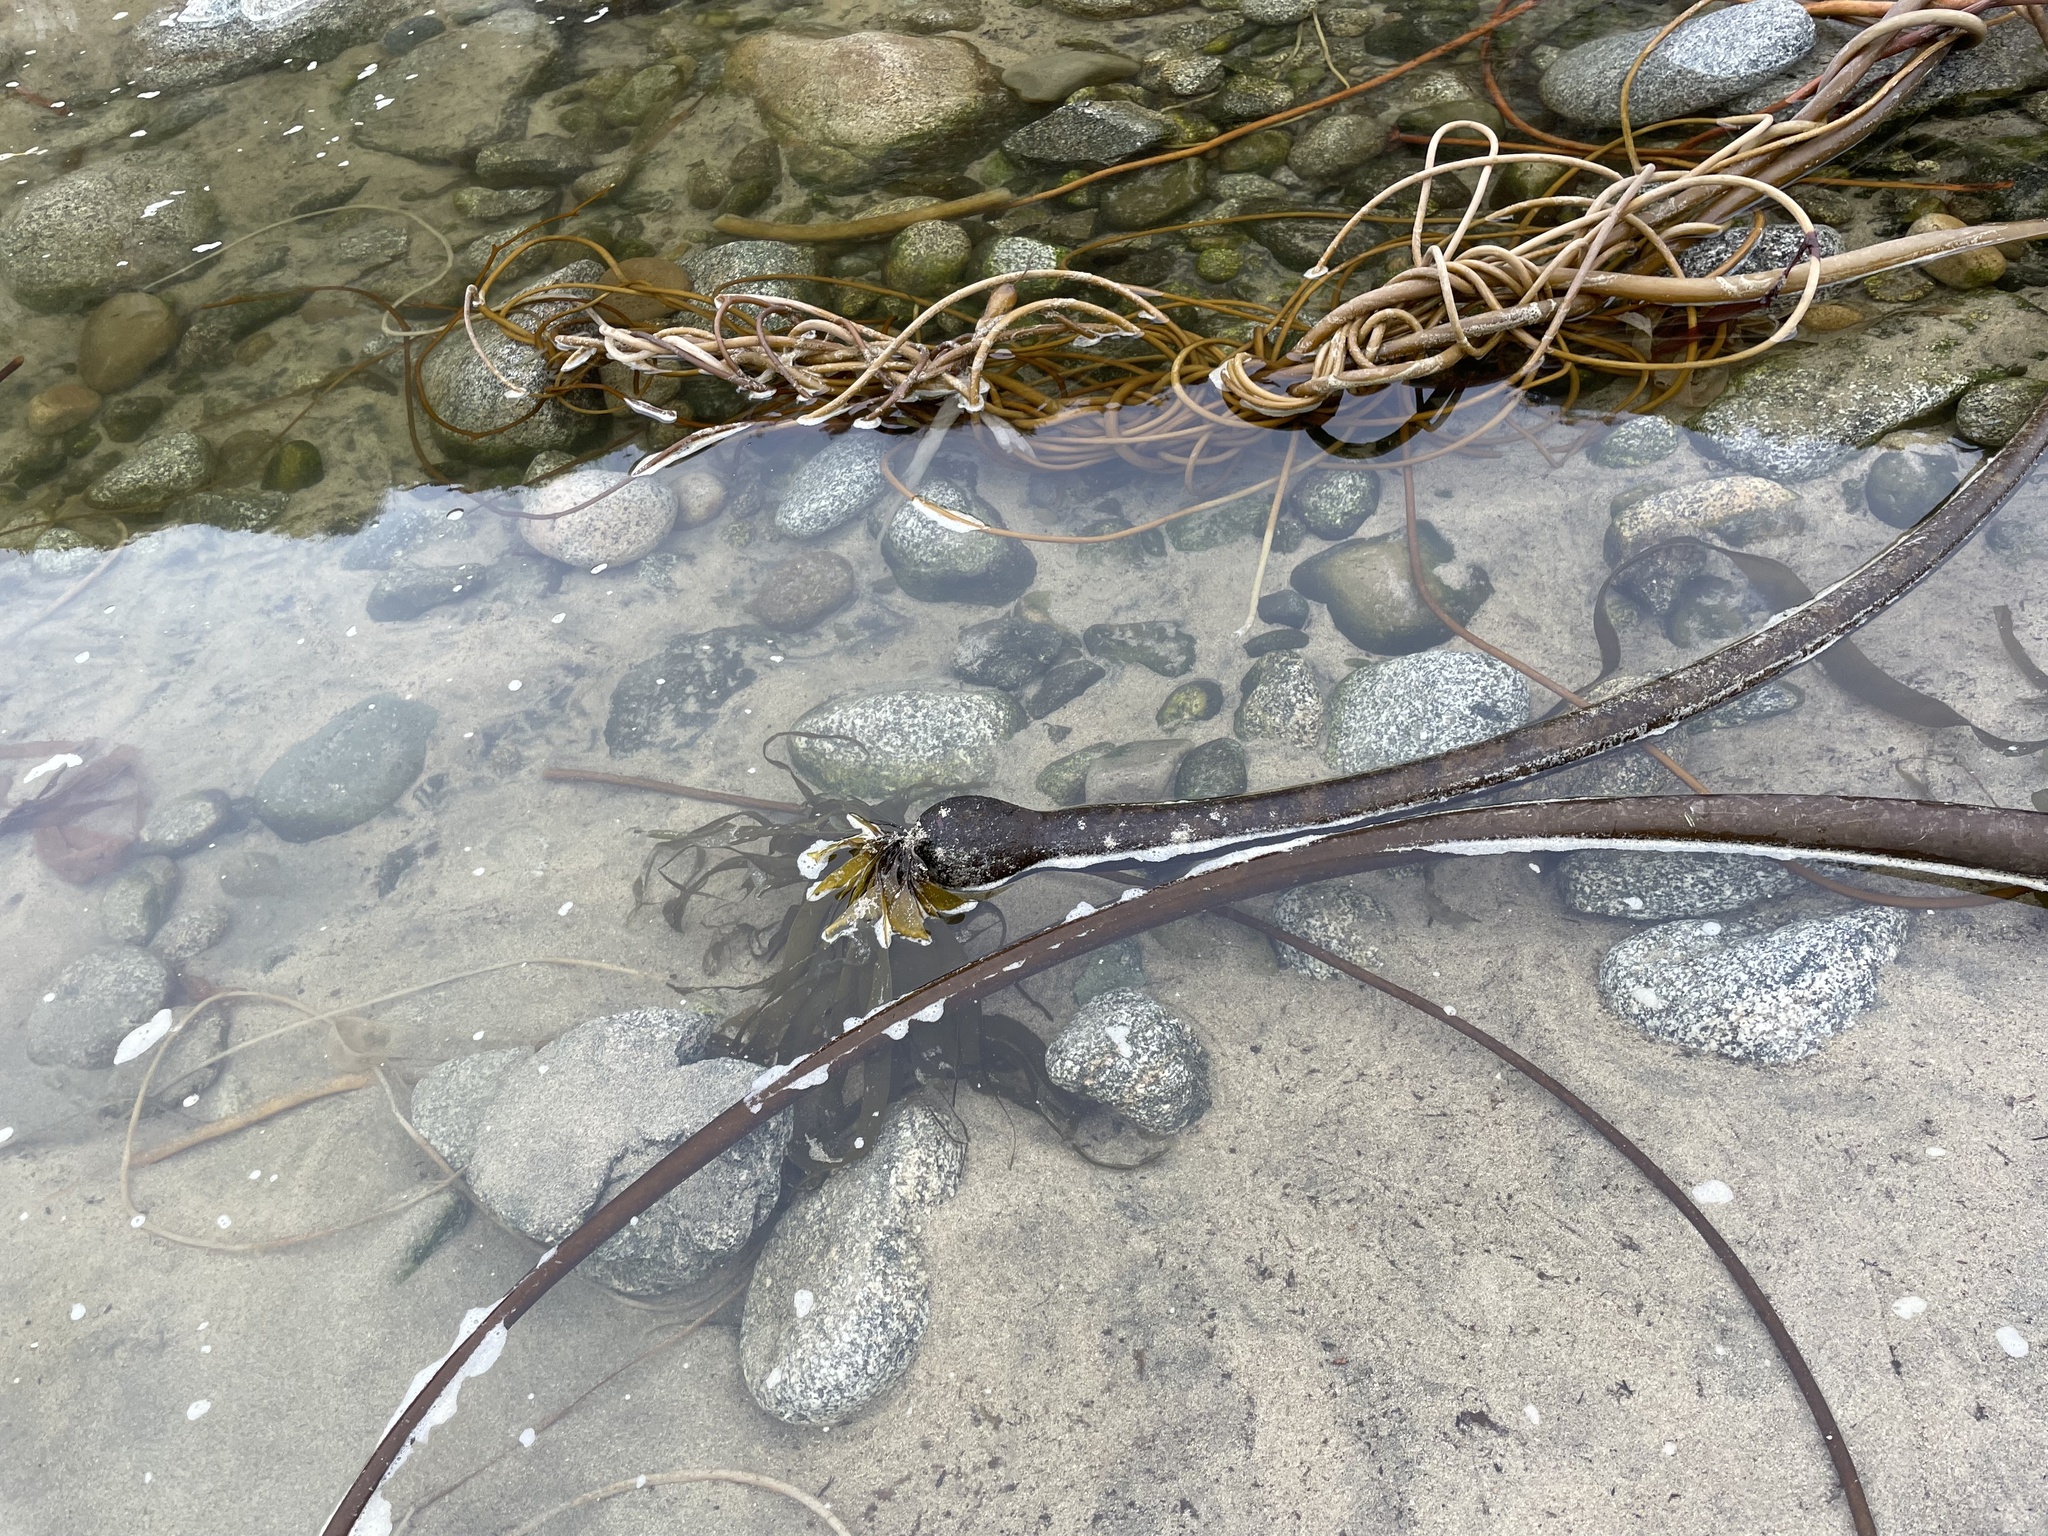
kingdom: Chromista
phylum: Ochrophyta
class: Phaeophyceae
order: Laminariales
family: Laminariaceae
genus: Nereocystis
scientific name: Nereocystis luetkeana
